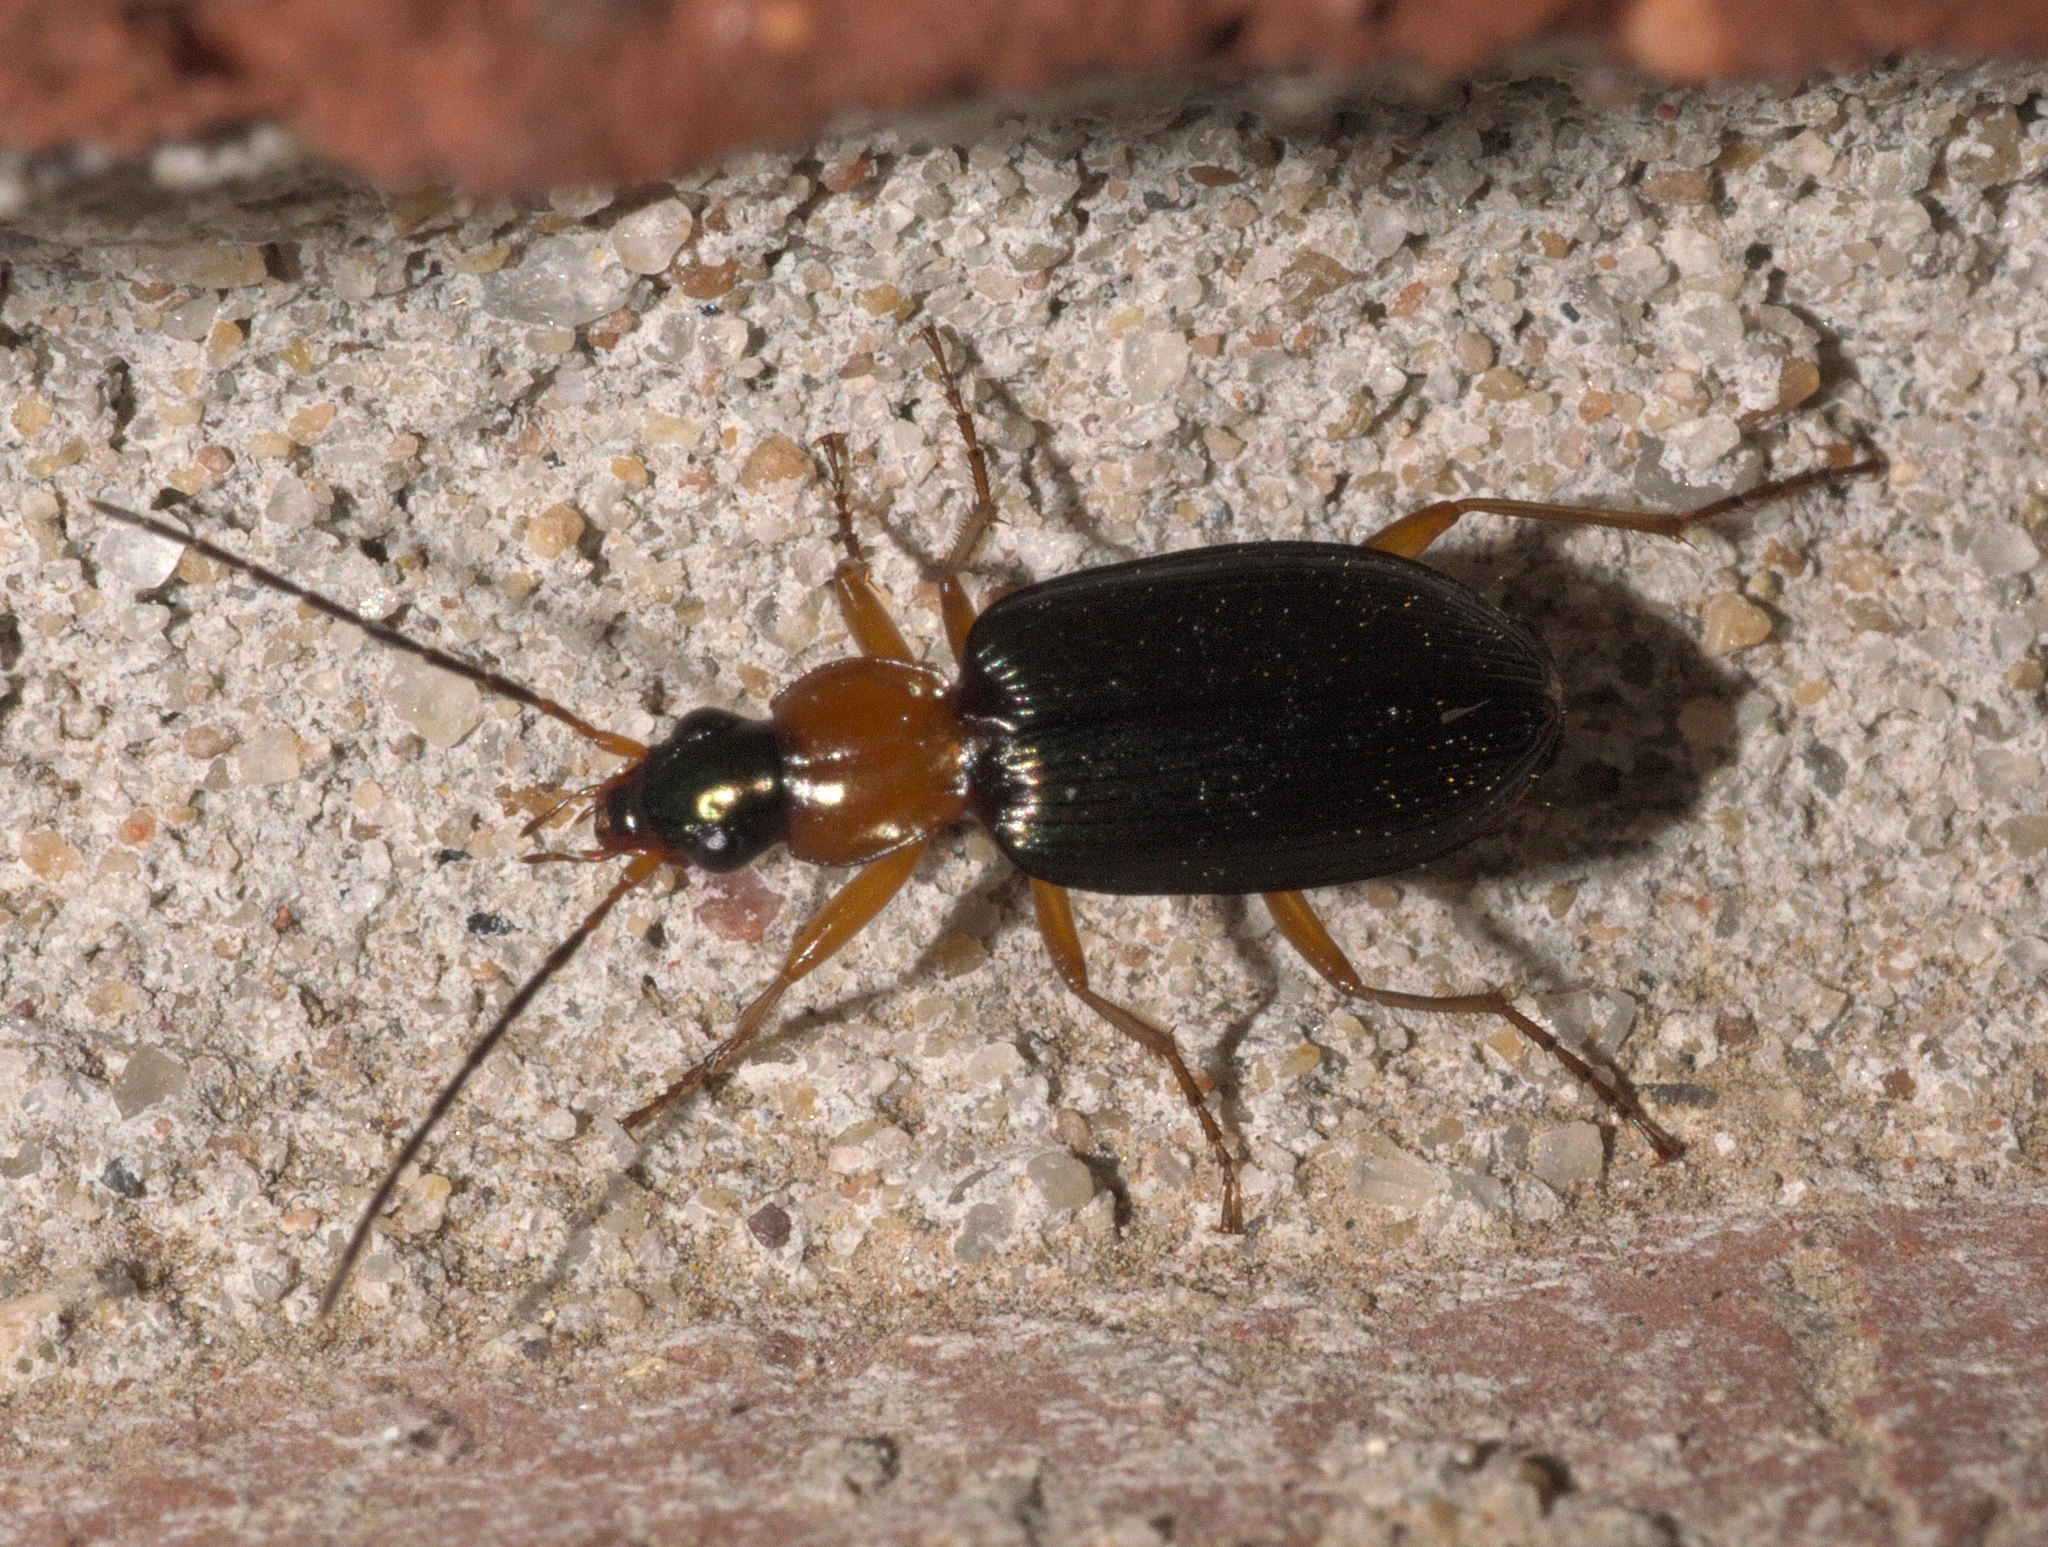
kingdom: Animalia
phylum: Arthropoda
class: Insecta
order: Coleoptera
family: Carabidae
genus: Agonum
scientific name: Agonum decorum
